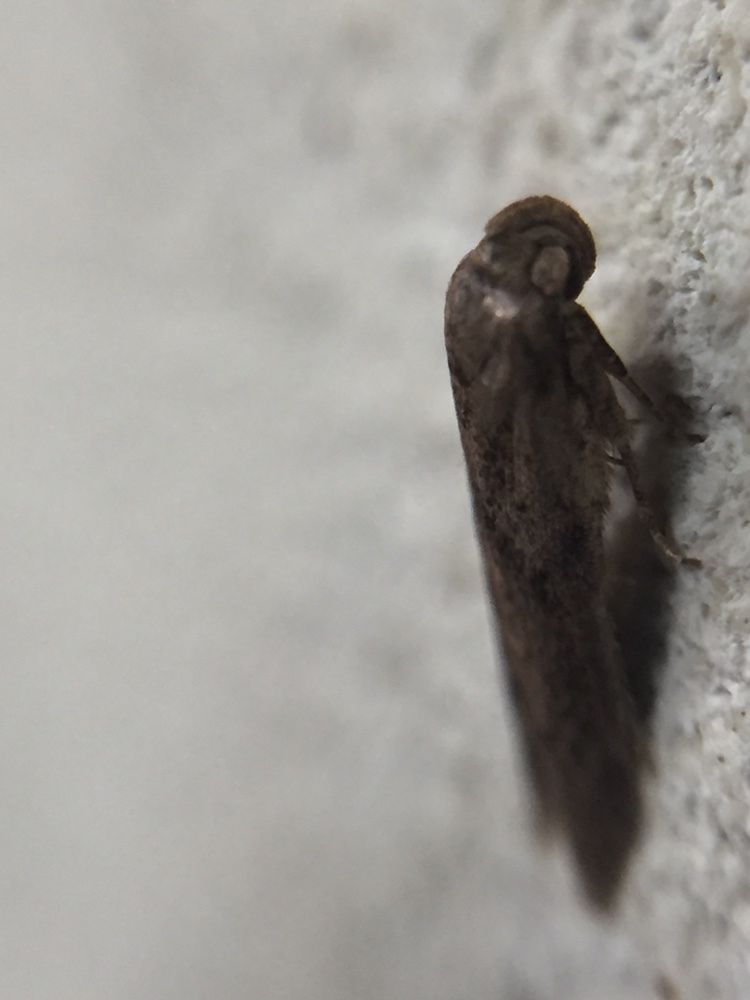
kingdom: Animalia
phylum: Arthropoda
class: Insecta
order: Lepidoptera
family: Blastobasidae
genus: Blastobasis
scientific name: Blastobasis tarda
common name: Blastobasid moth
